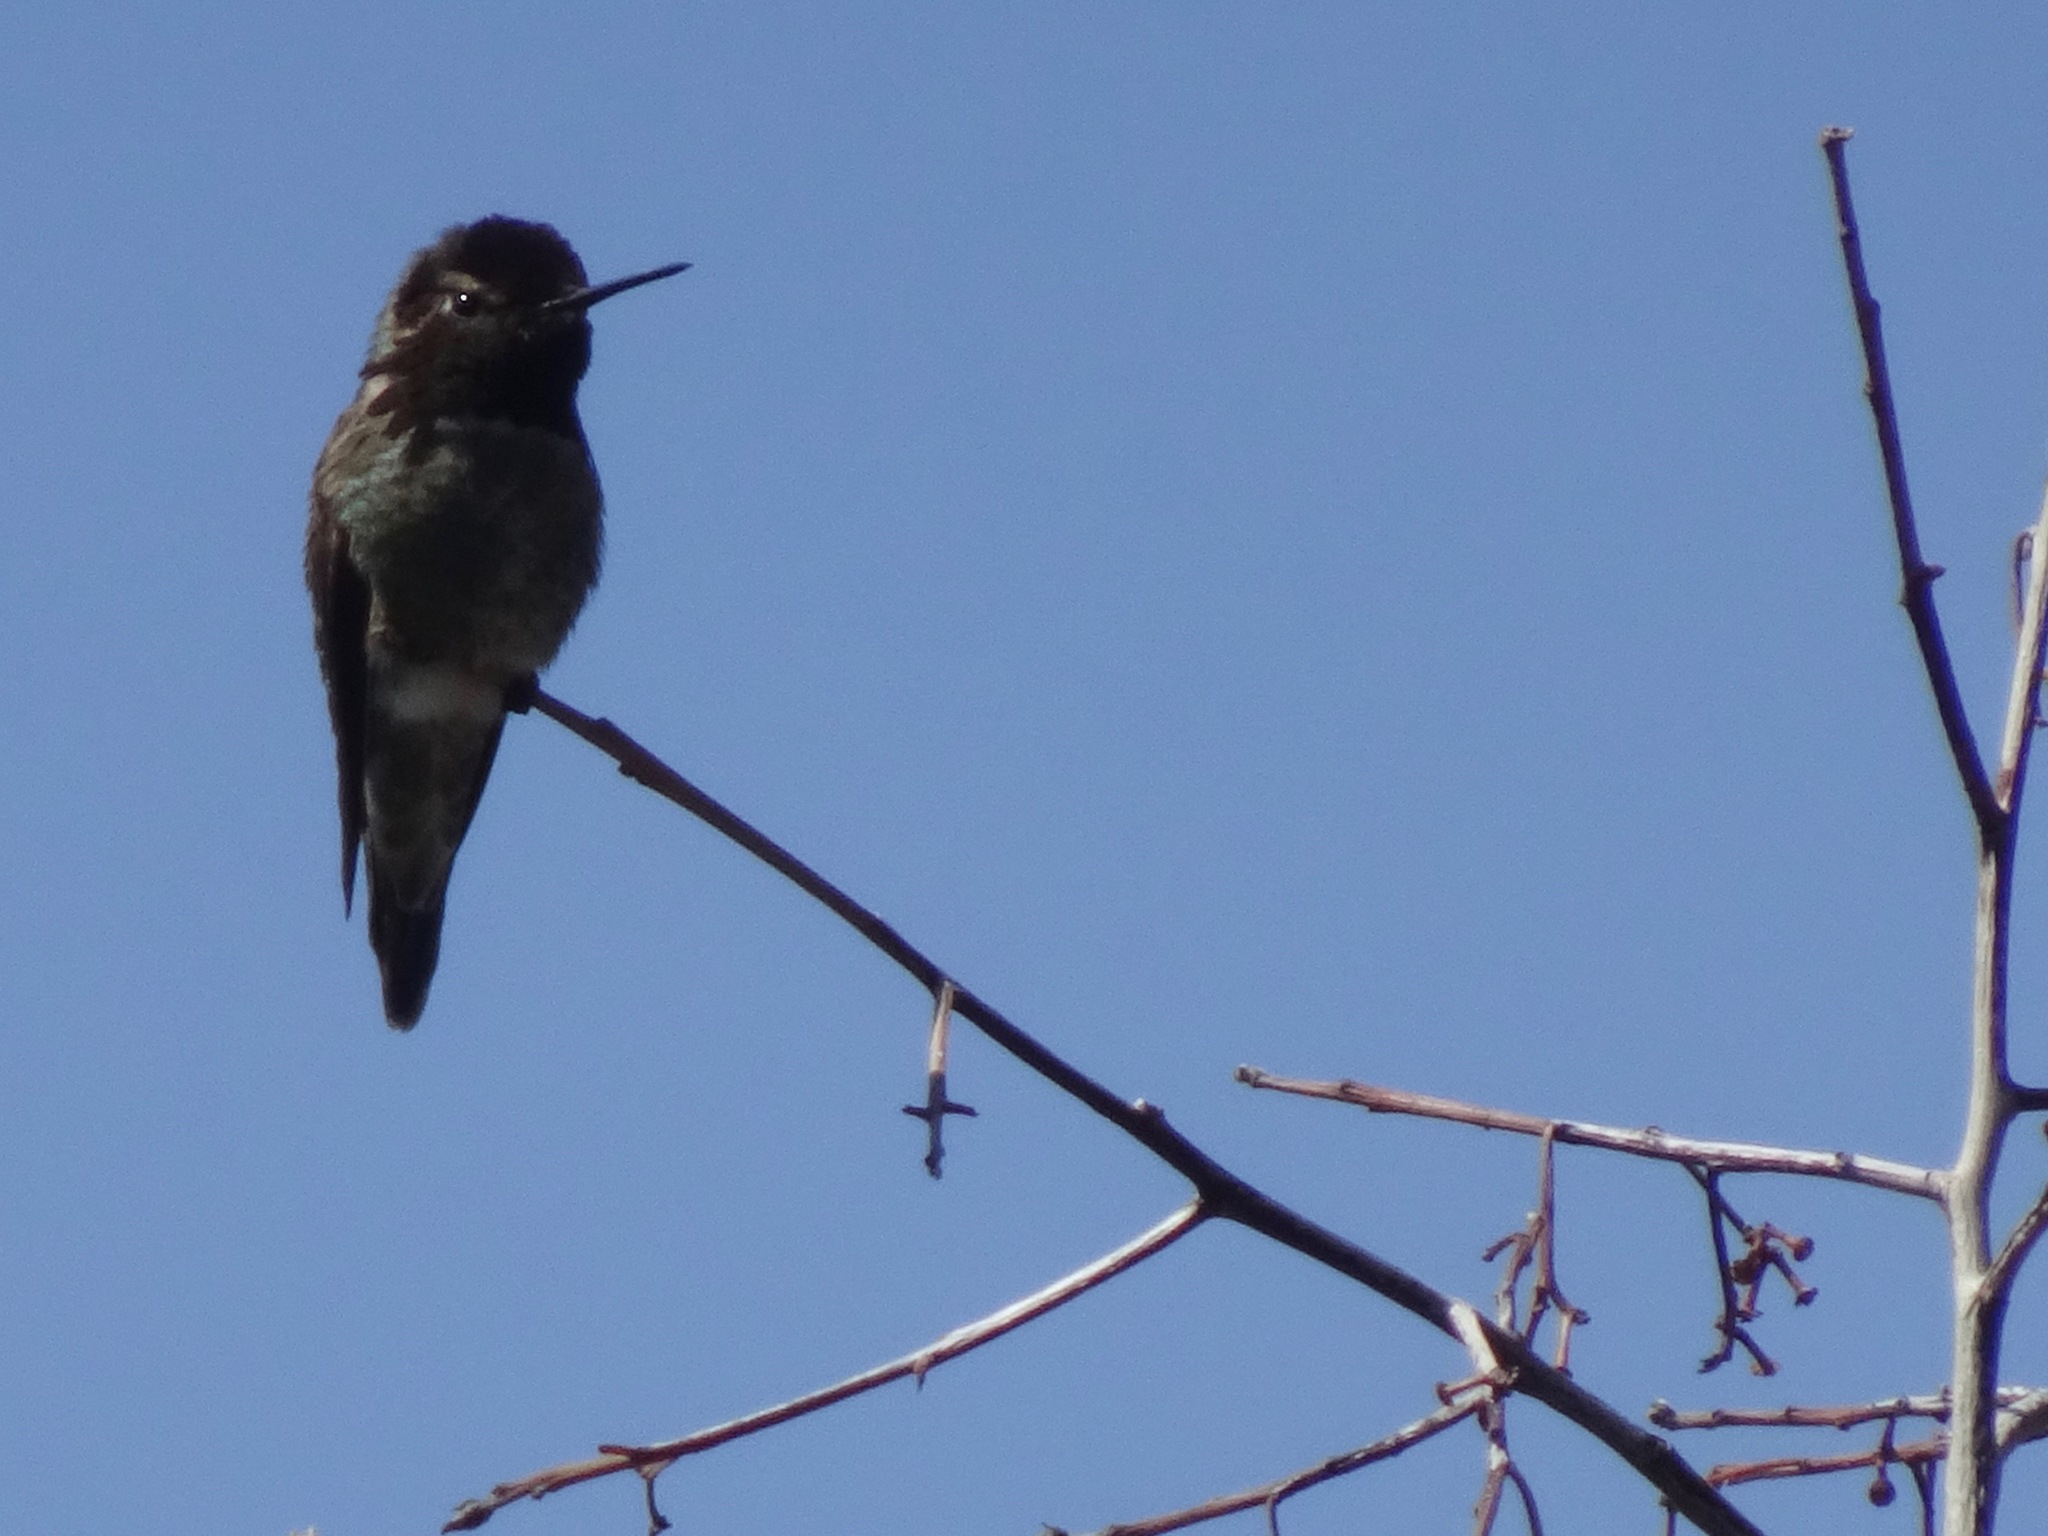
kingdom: Animalia
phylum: Chordata
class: Aves
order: Apodiformes
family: Trochilidae
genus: Calypte
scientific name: Calypte anna
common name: Anna's hummingbird
